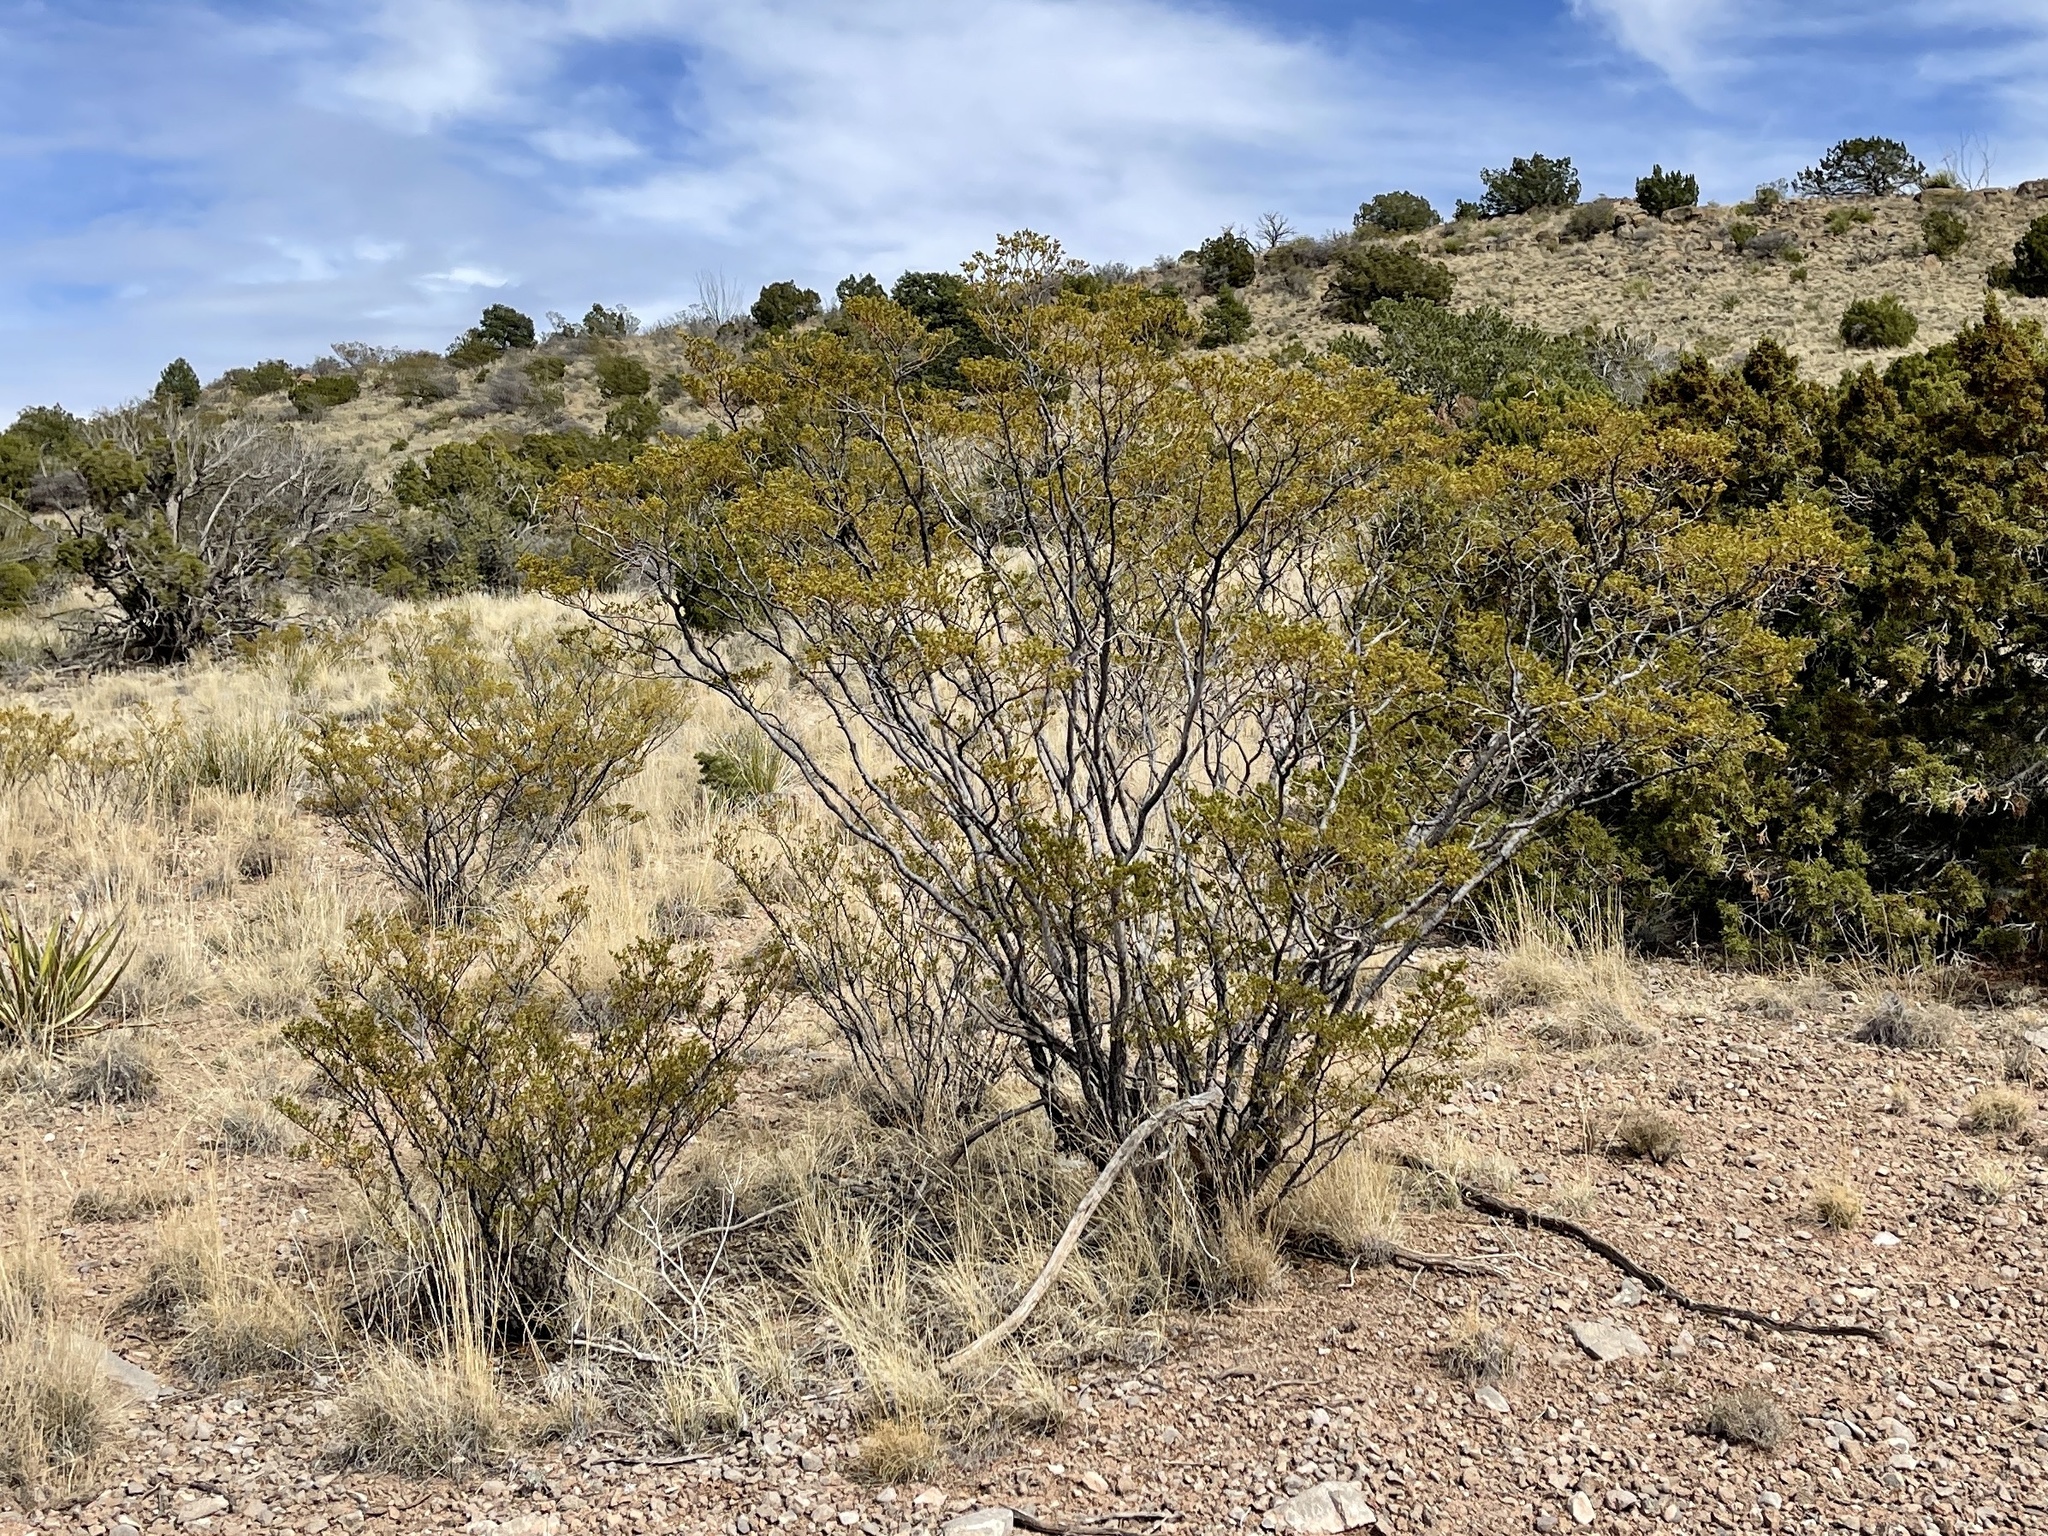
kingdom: Plantae
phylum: Tracheophyta
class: Magnoliopsida
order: Zygophyllales
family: Zygophyllaceae
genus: Larrea
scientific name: Larrea tridentata
